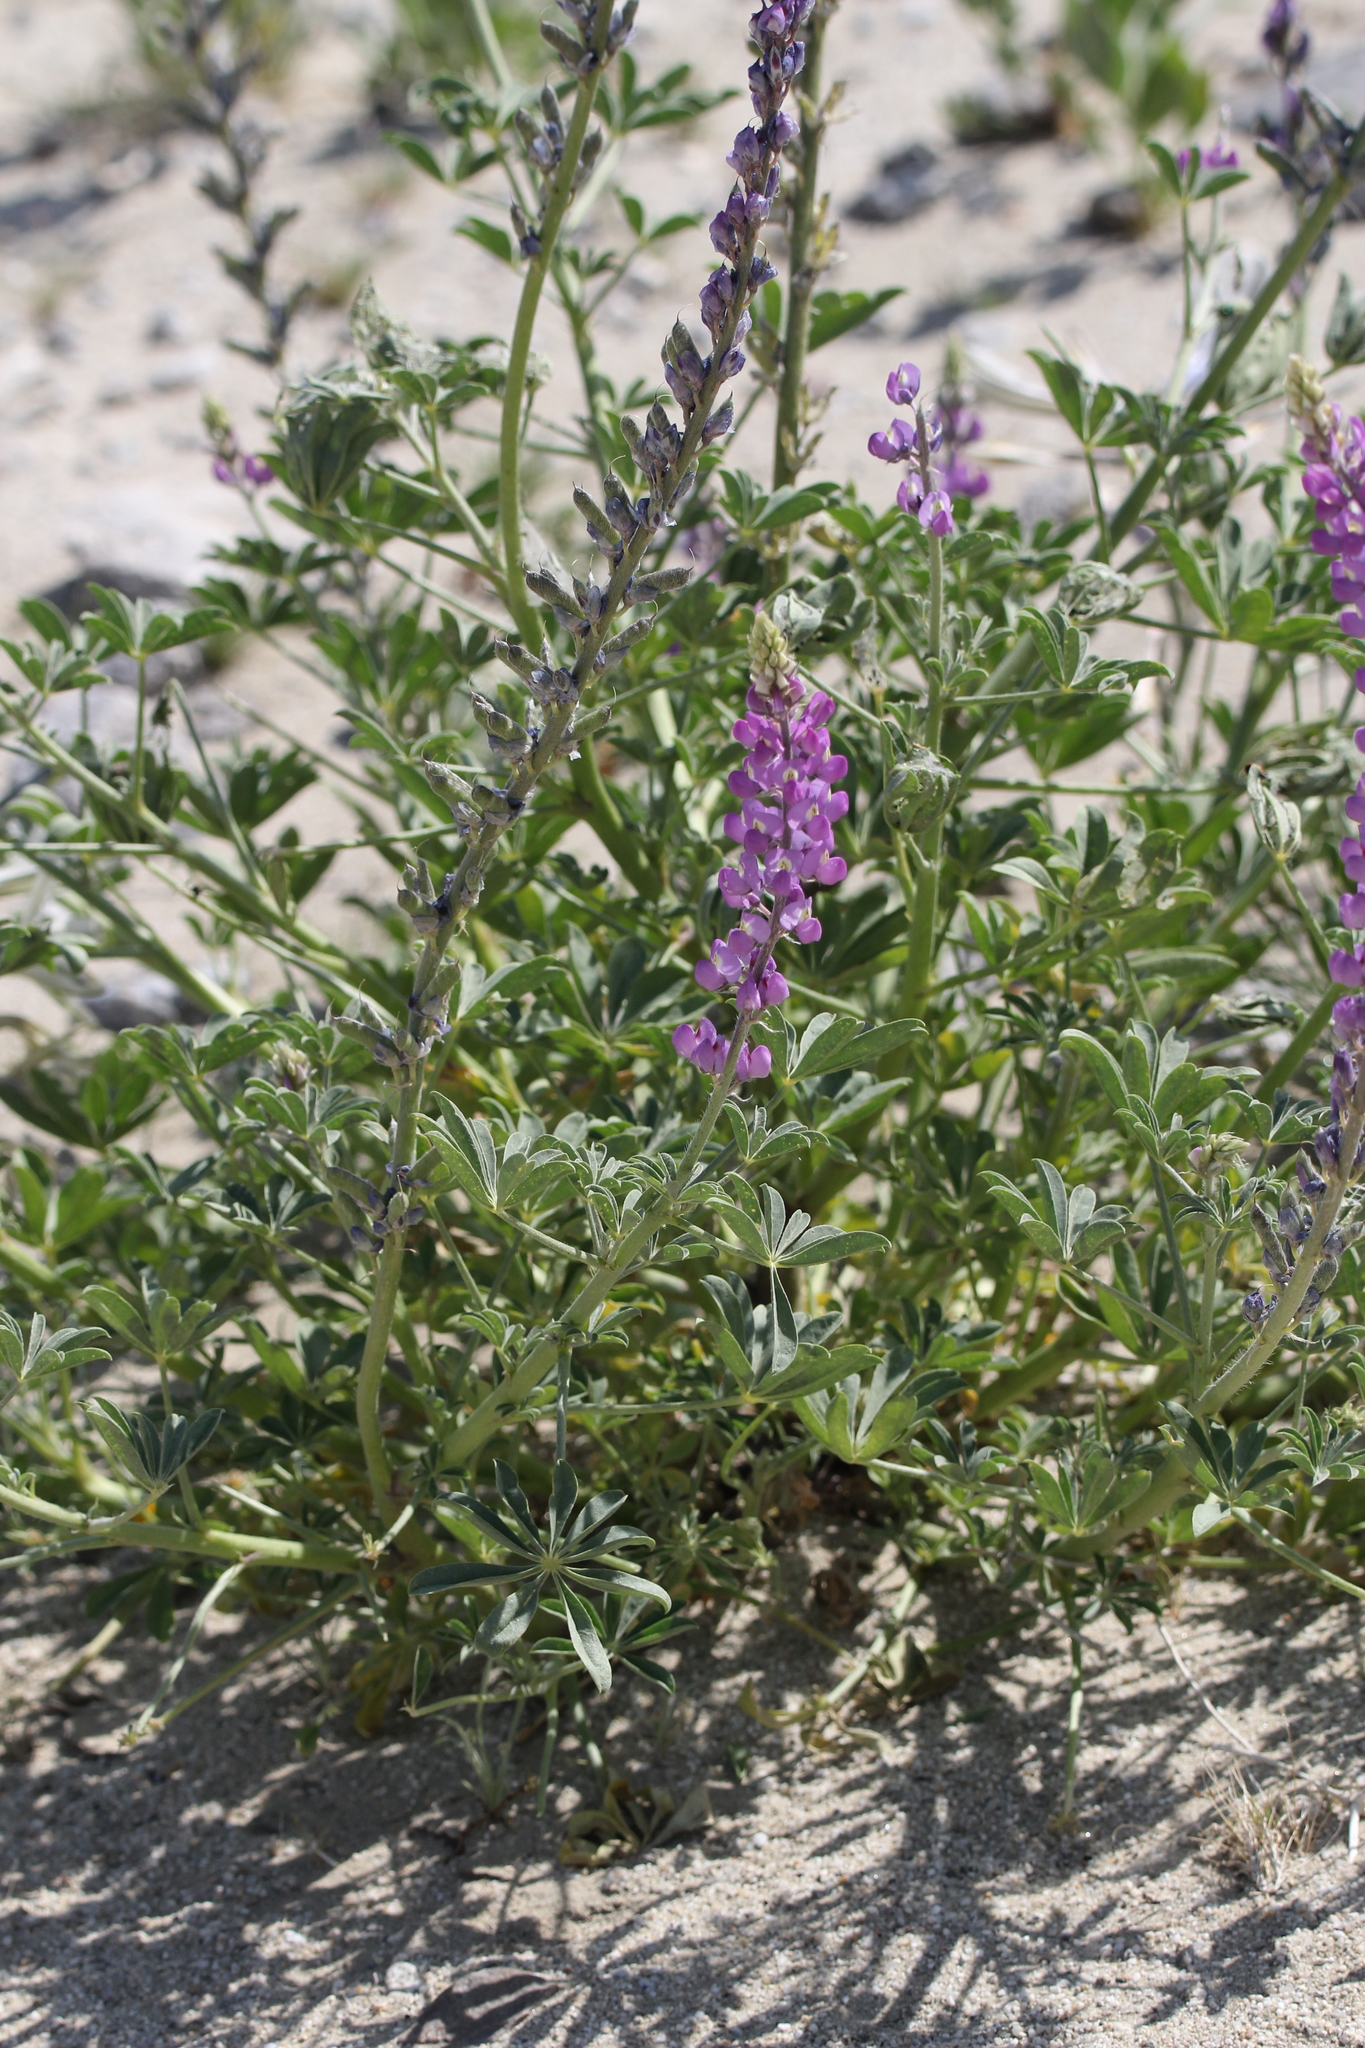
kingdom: Plantae
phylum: Tracheophyta
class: Magnoliopsida
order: Fabales
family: Fabaceae
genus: Lupinus
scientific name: Lupinus arizonicus
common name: Arizona lupine
